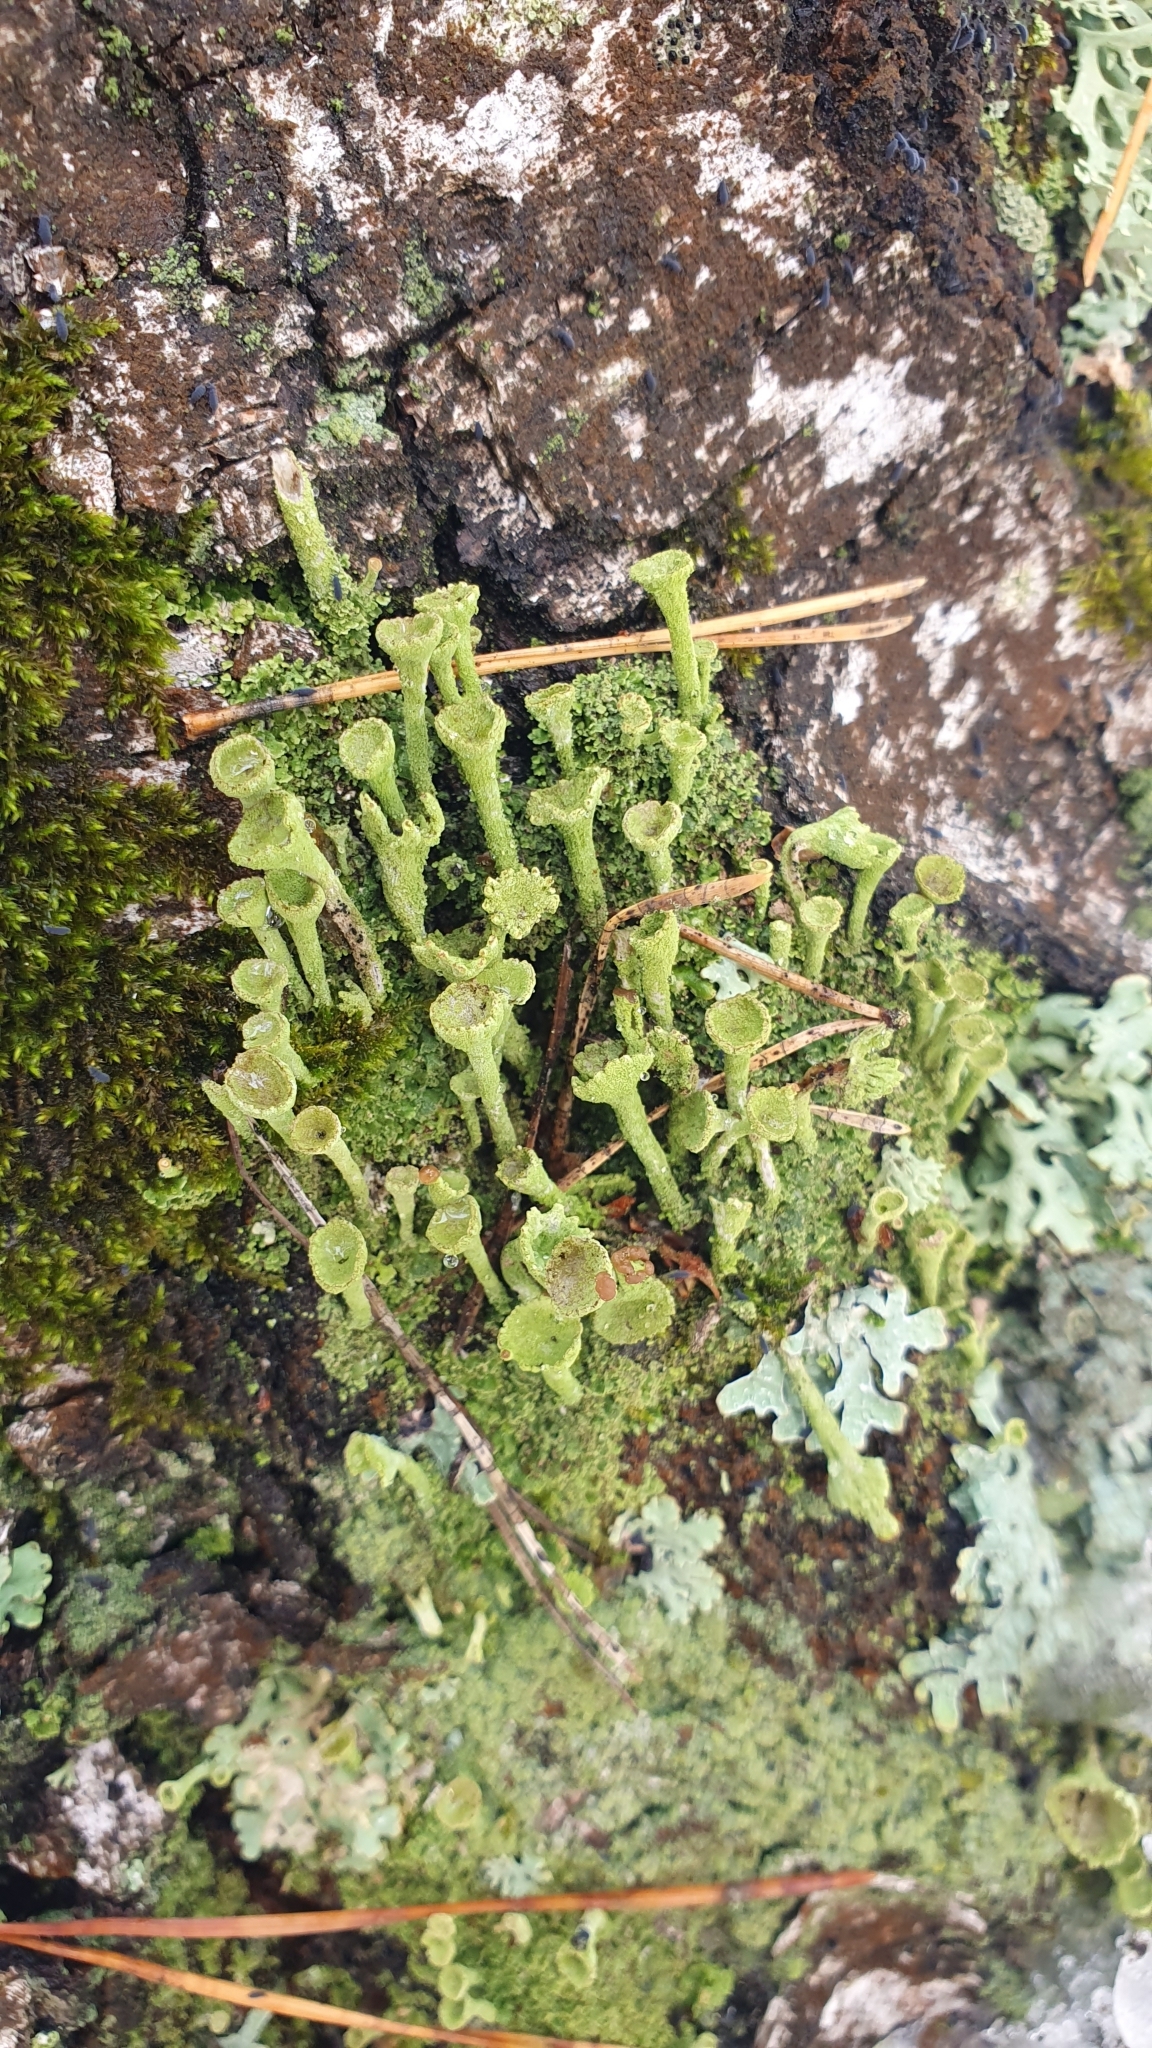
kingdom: Fungi
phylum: Ascomycota
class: Lecanoromycetes
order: Lecanorales
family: Cladoniaceae
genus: Cladonia
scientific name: Cladonia fimbriata
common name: Powdered trumpet lichen
